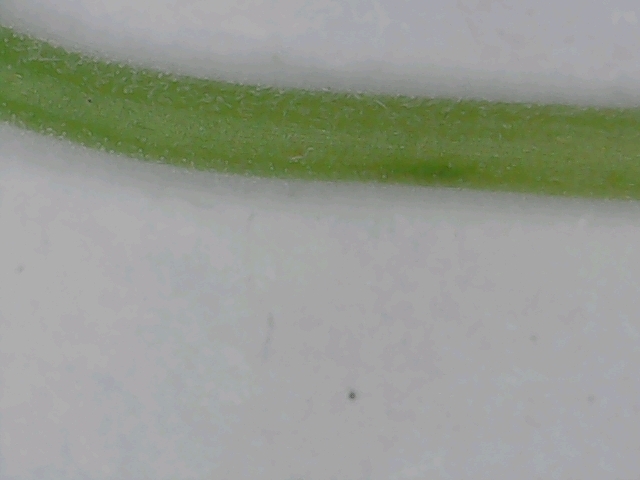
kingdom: Plantae
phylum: Tracheophyta
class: Magnoliopsida
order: Geraniales
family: Geraniaceae
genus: Geranium
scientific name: Geranium pusillum
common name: Small geranium
